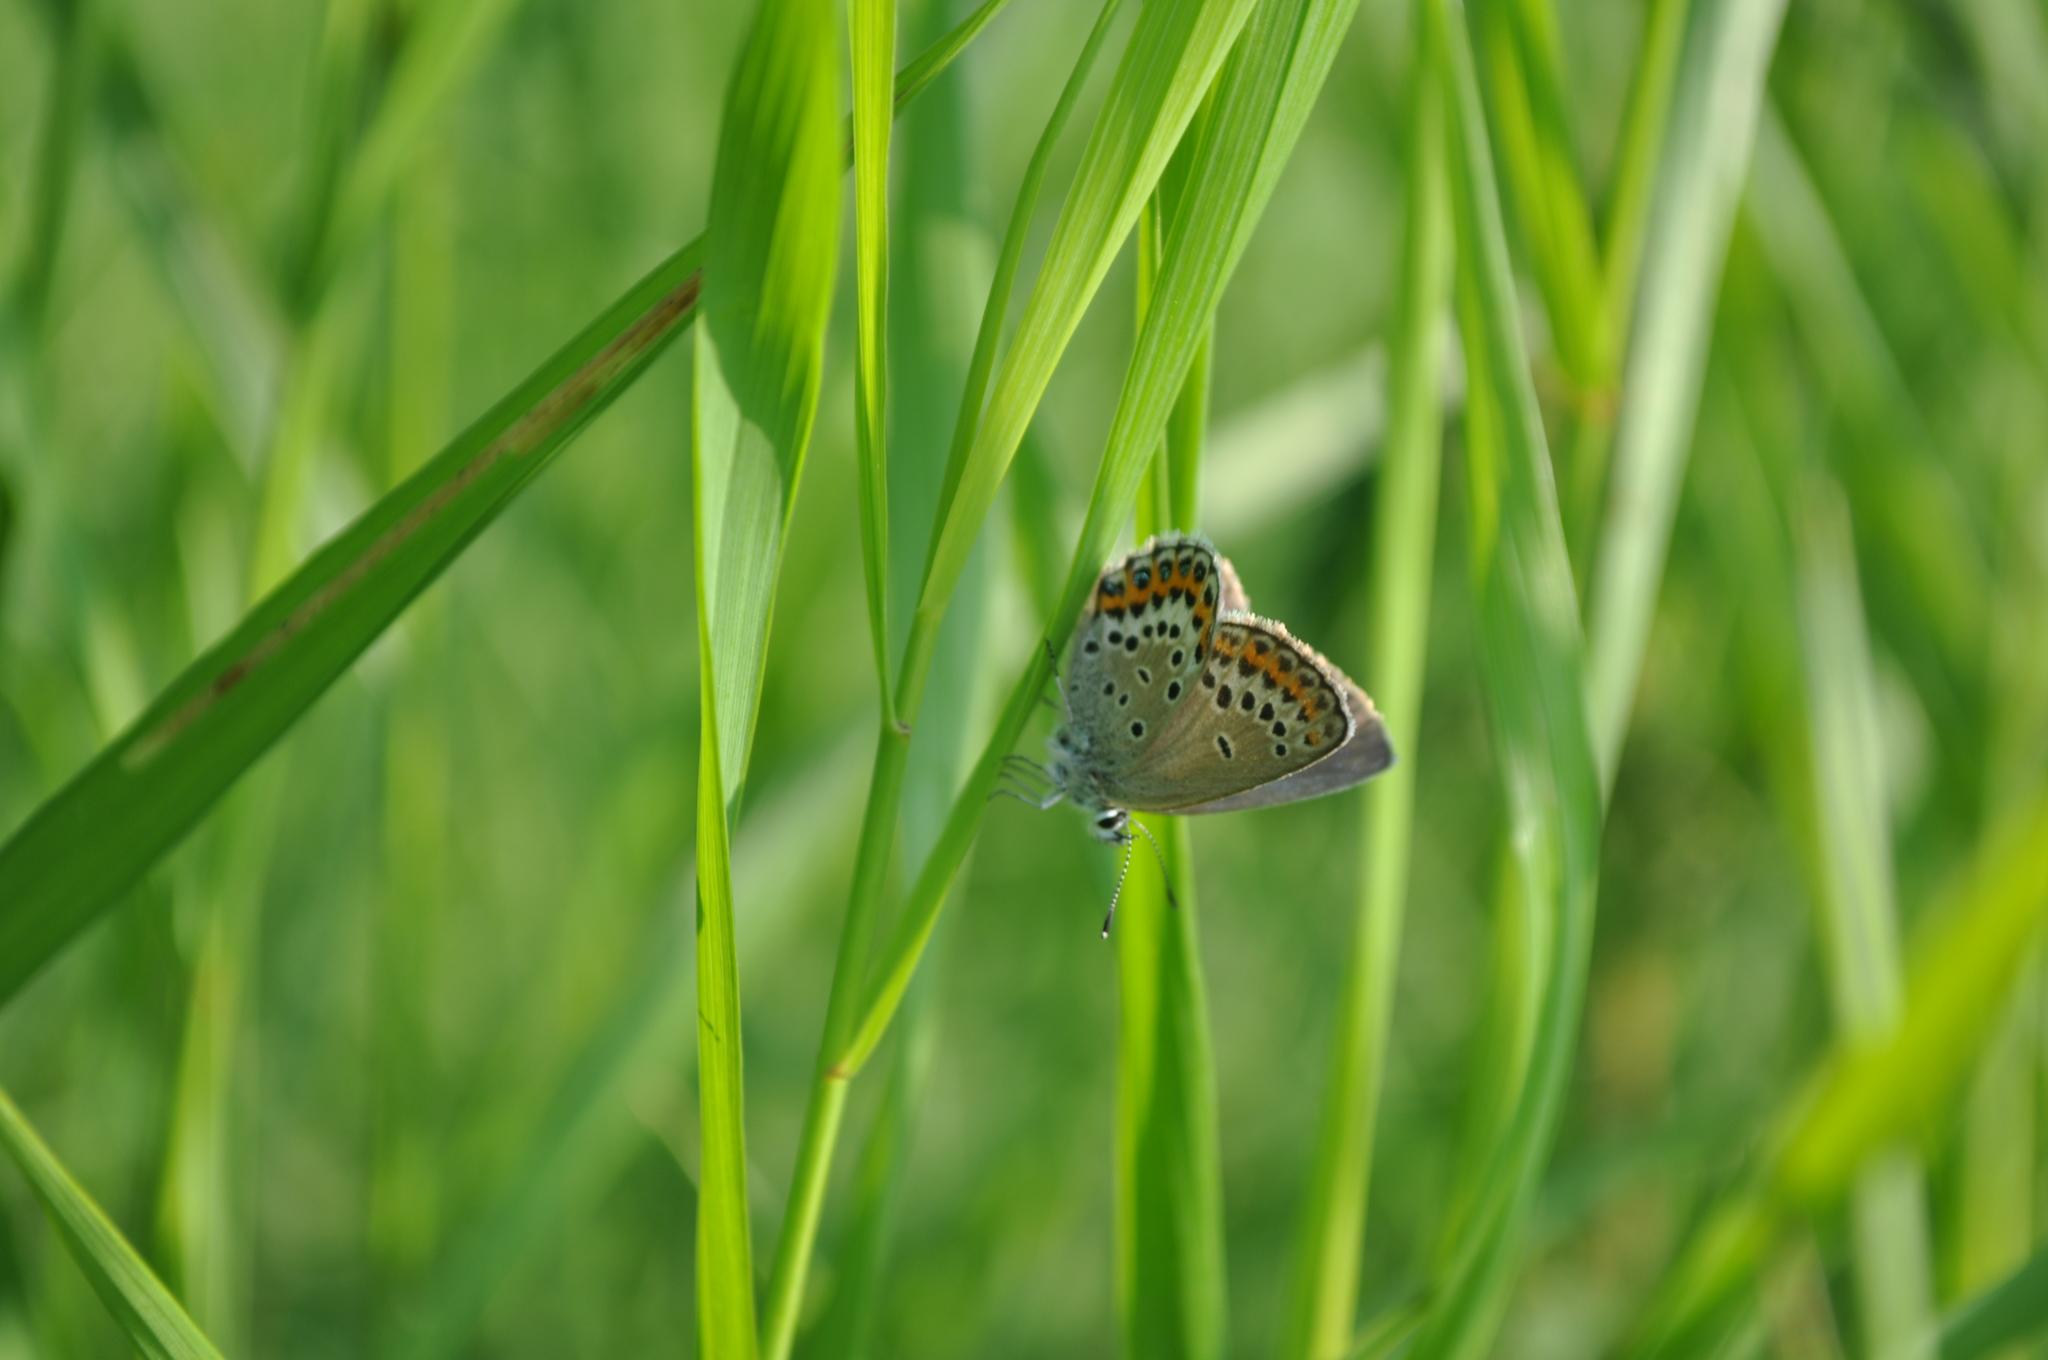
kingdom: Animalia
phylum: Arthropoda
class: Insecta
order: Lepidoptera
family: Lycaenidae
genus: Lycaeides
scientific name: Lycaeides idas
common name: Northern blue
